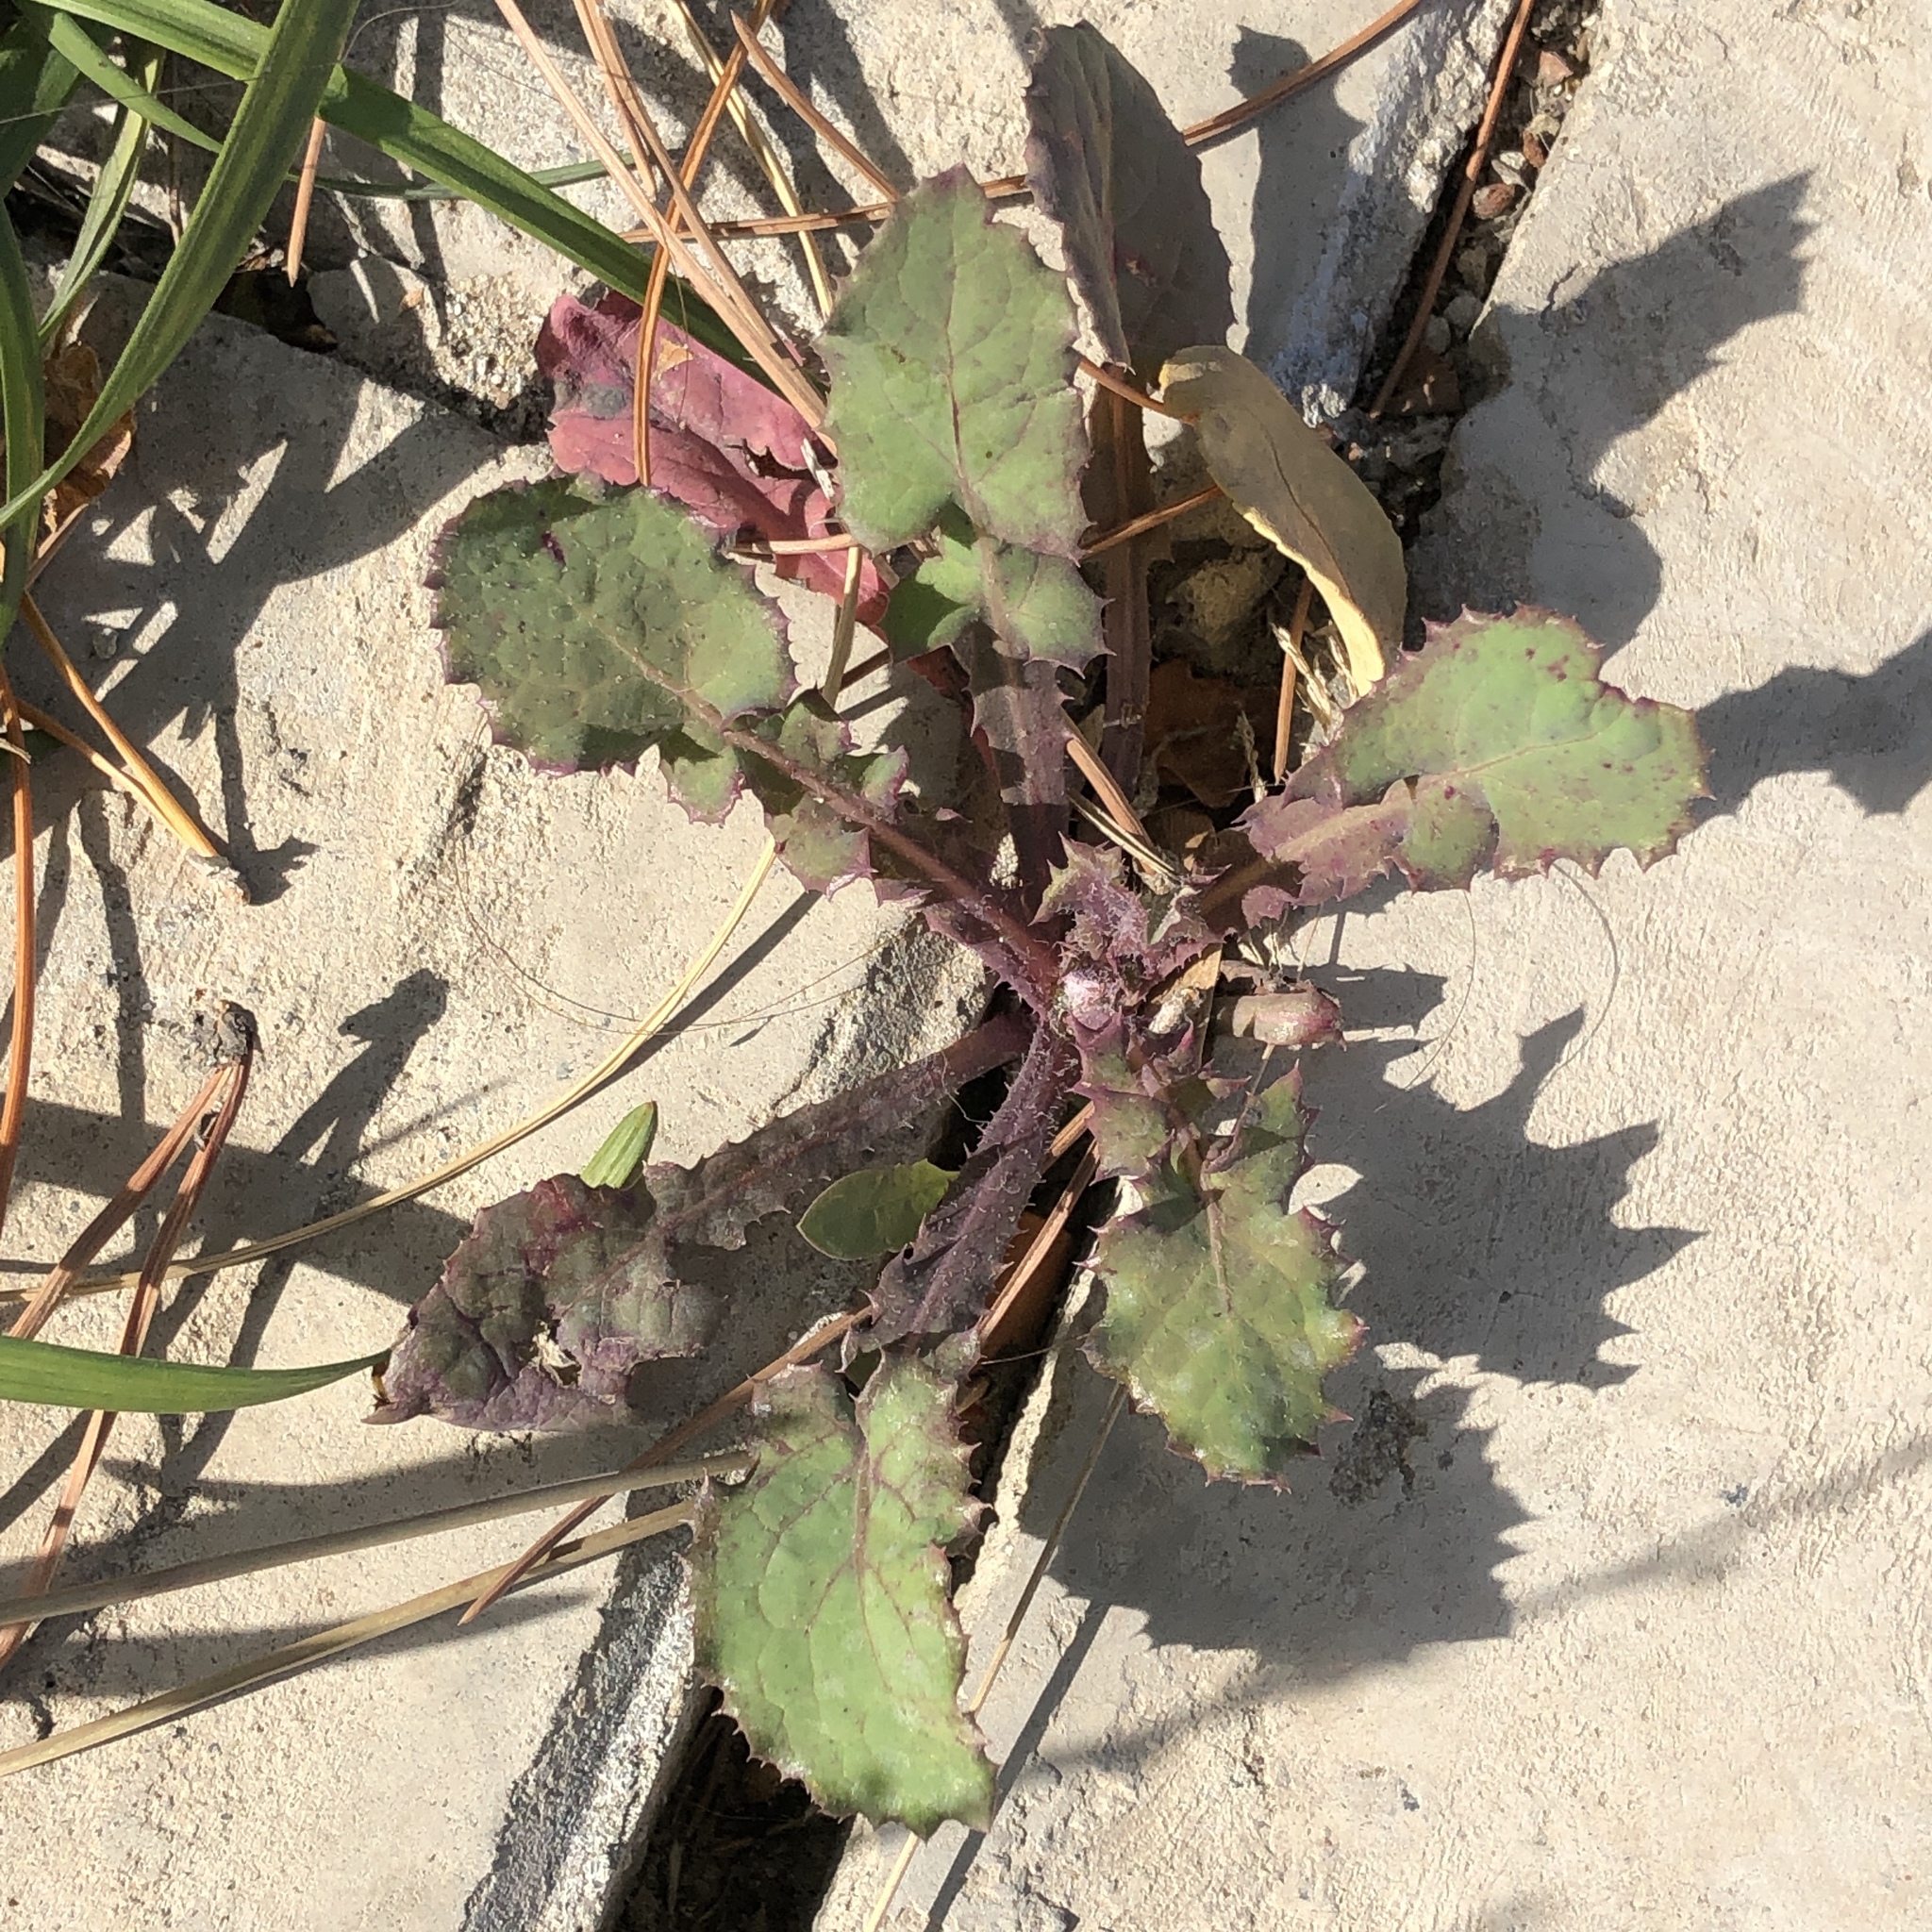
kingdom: Plantae
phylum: Tracheophyta
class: Magnoliopsida
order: Asterales
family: Asteraceae
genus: Sonchus
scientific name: Sonchus oleraceus
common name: Common sowthistle
